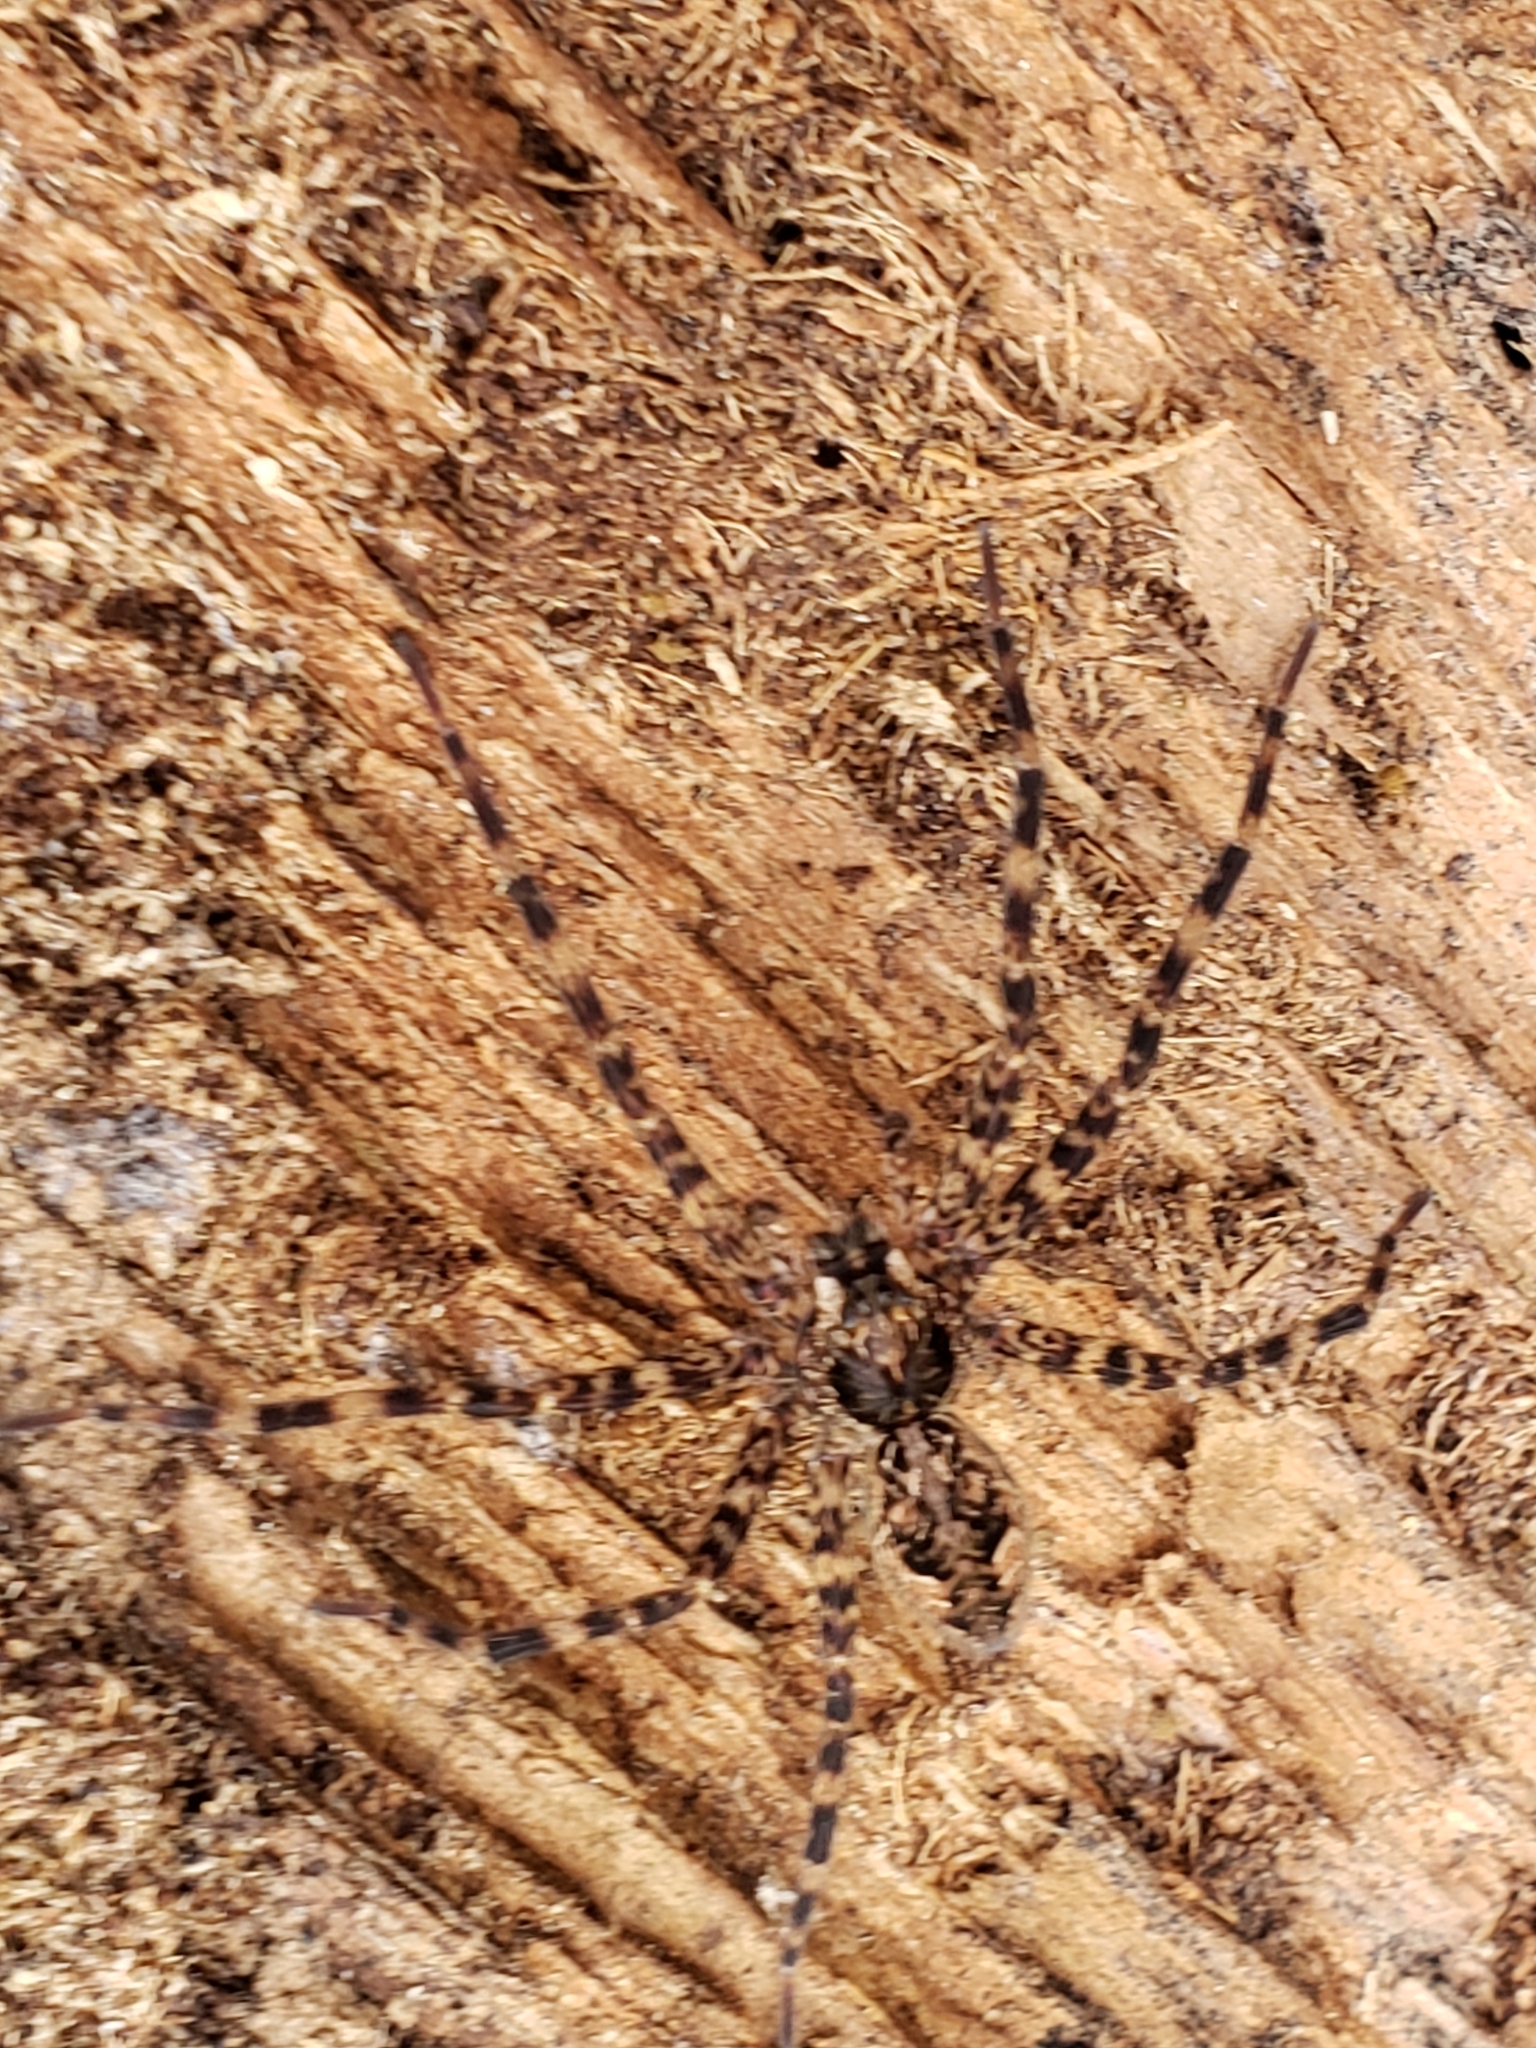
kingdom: Animalia
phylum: Arthropoda
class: Arachnida
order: Araneae
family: Pisauridae
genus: Dolomedes
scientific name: Dolomedes tenebrosus
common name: Dark fishing spider
